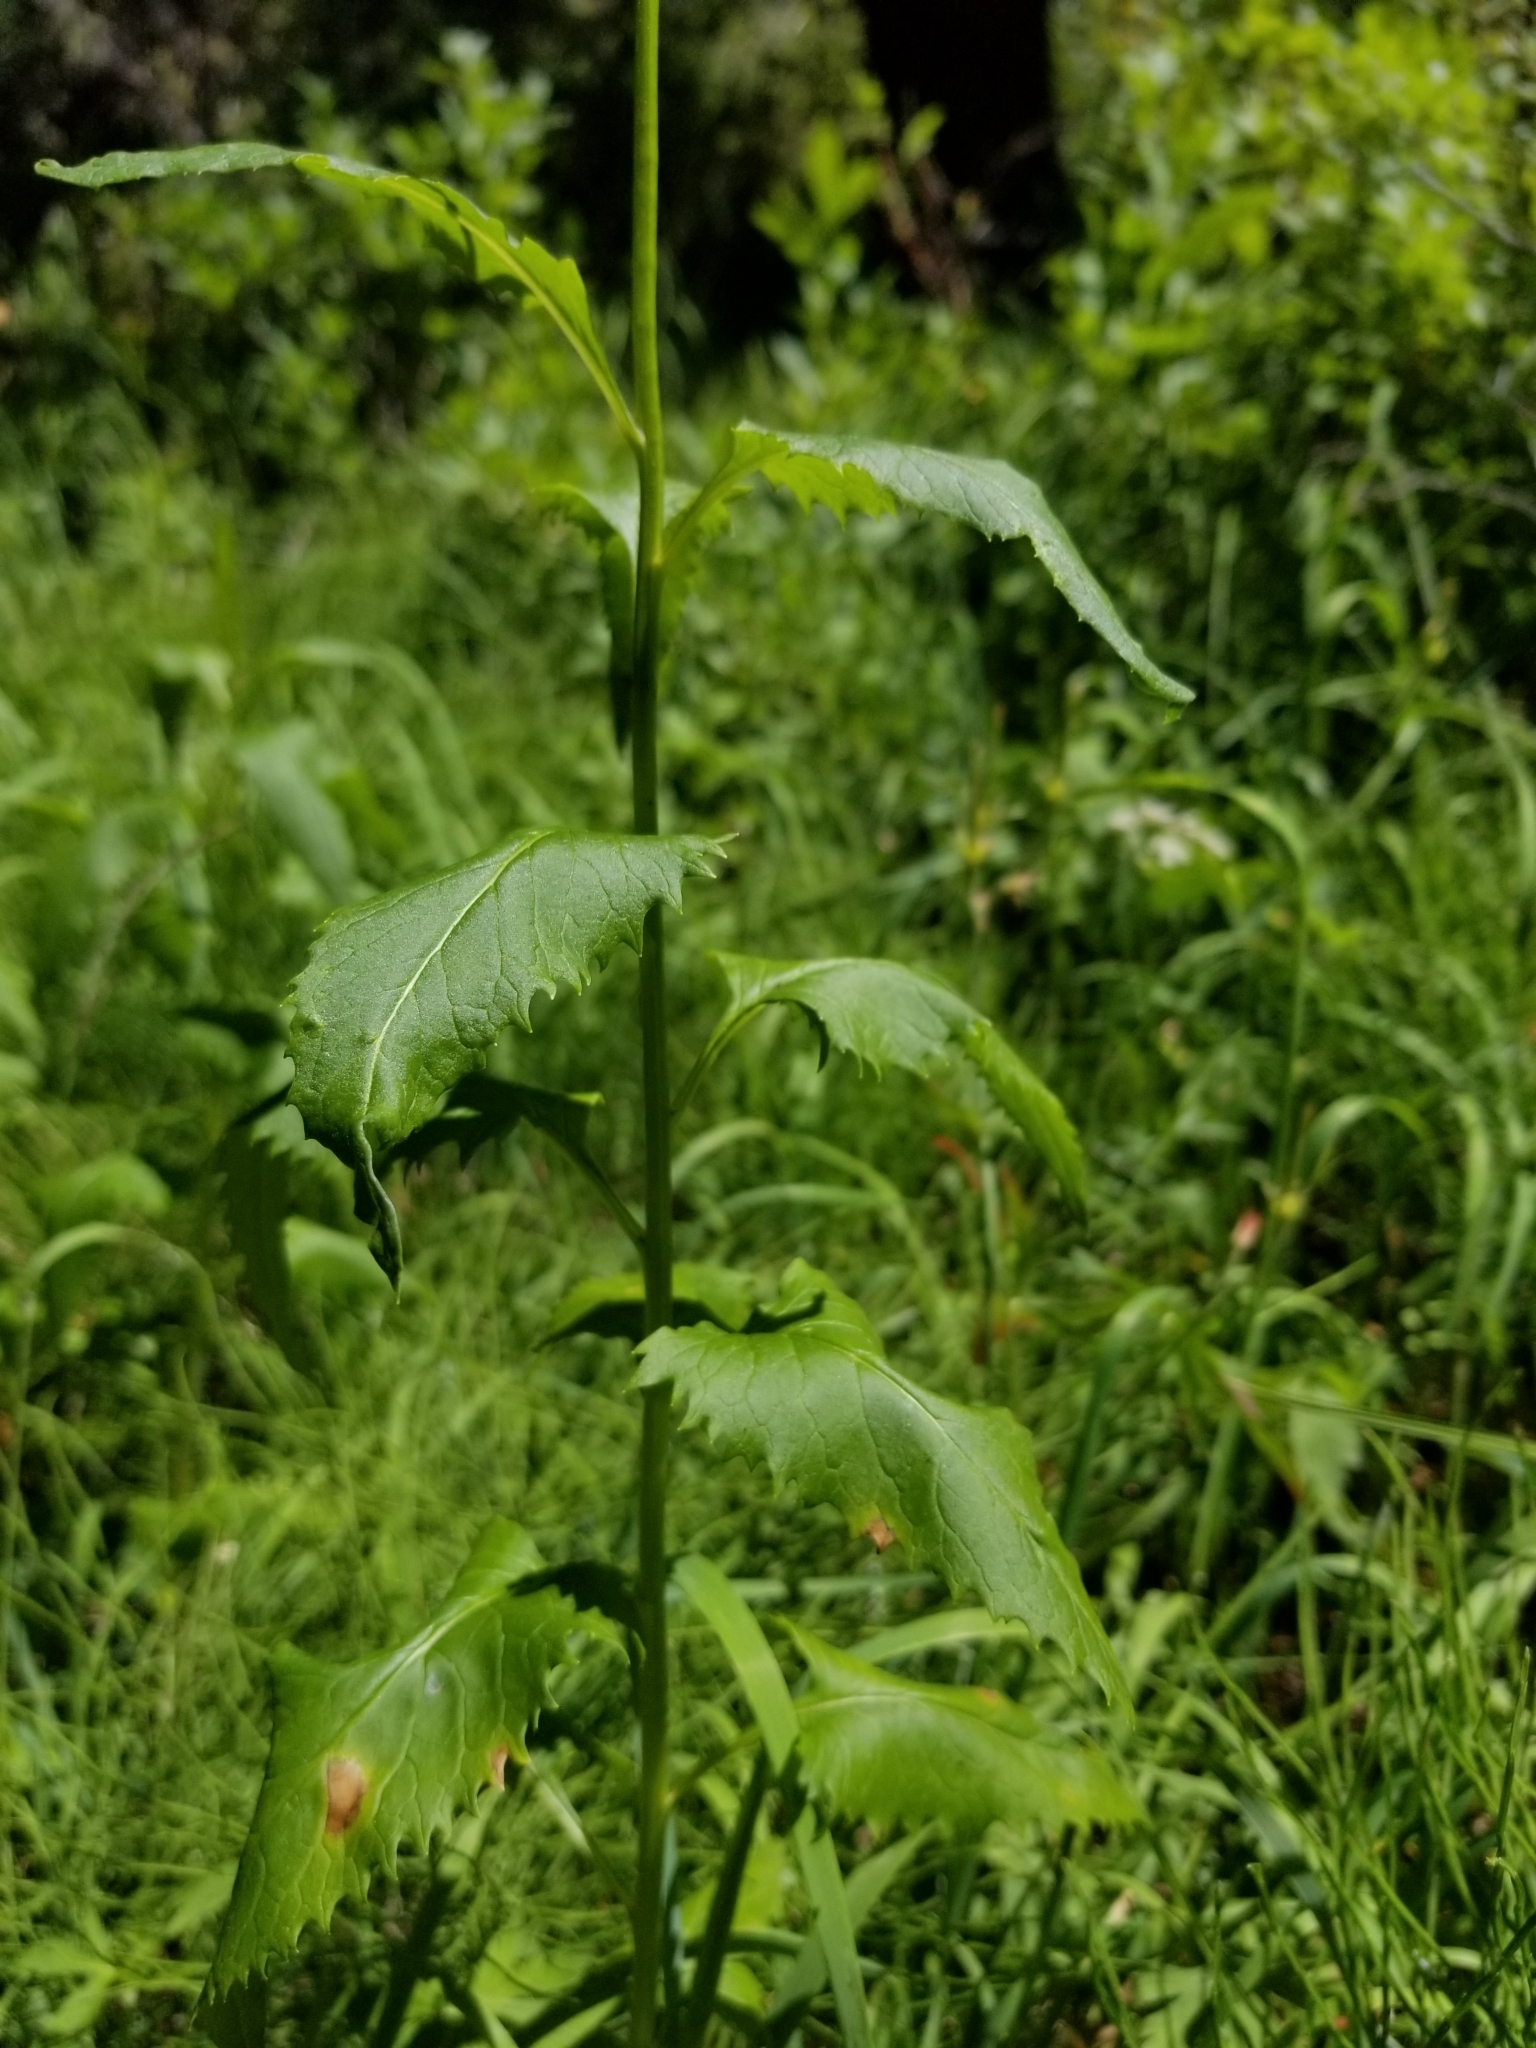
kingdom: Plantae
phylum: Tracheophyta
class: Magnoliopsida
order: Asterales
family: Asteraceae
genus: Senecio
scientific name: Senecio triangularis
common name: Arrowleaf butterweed
